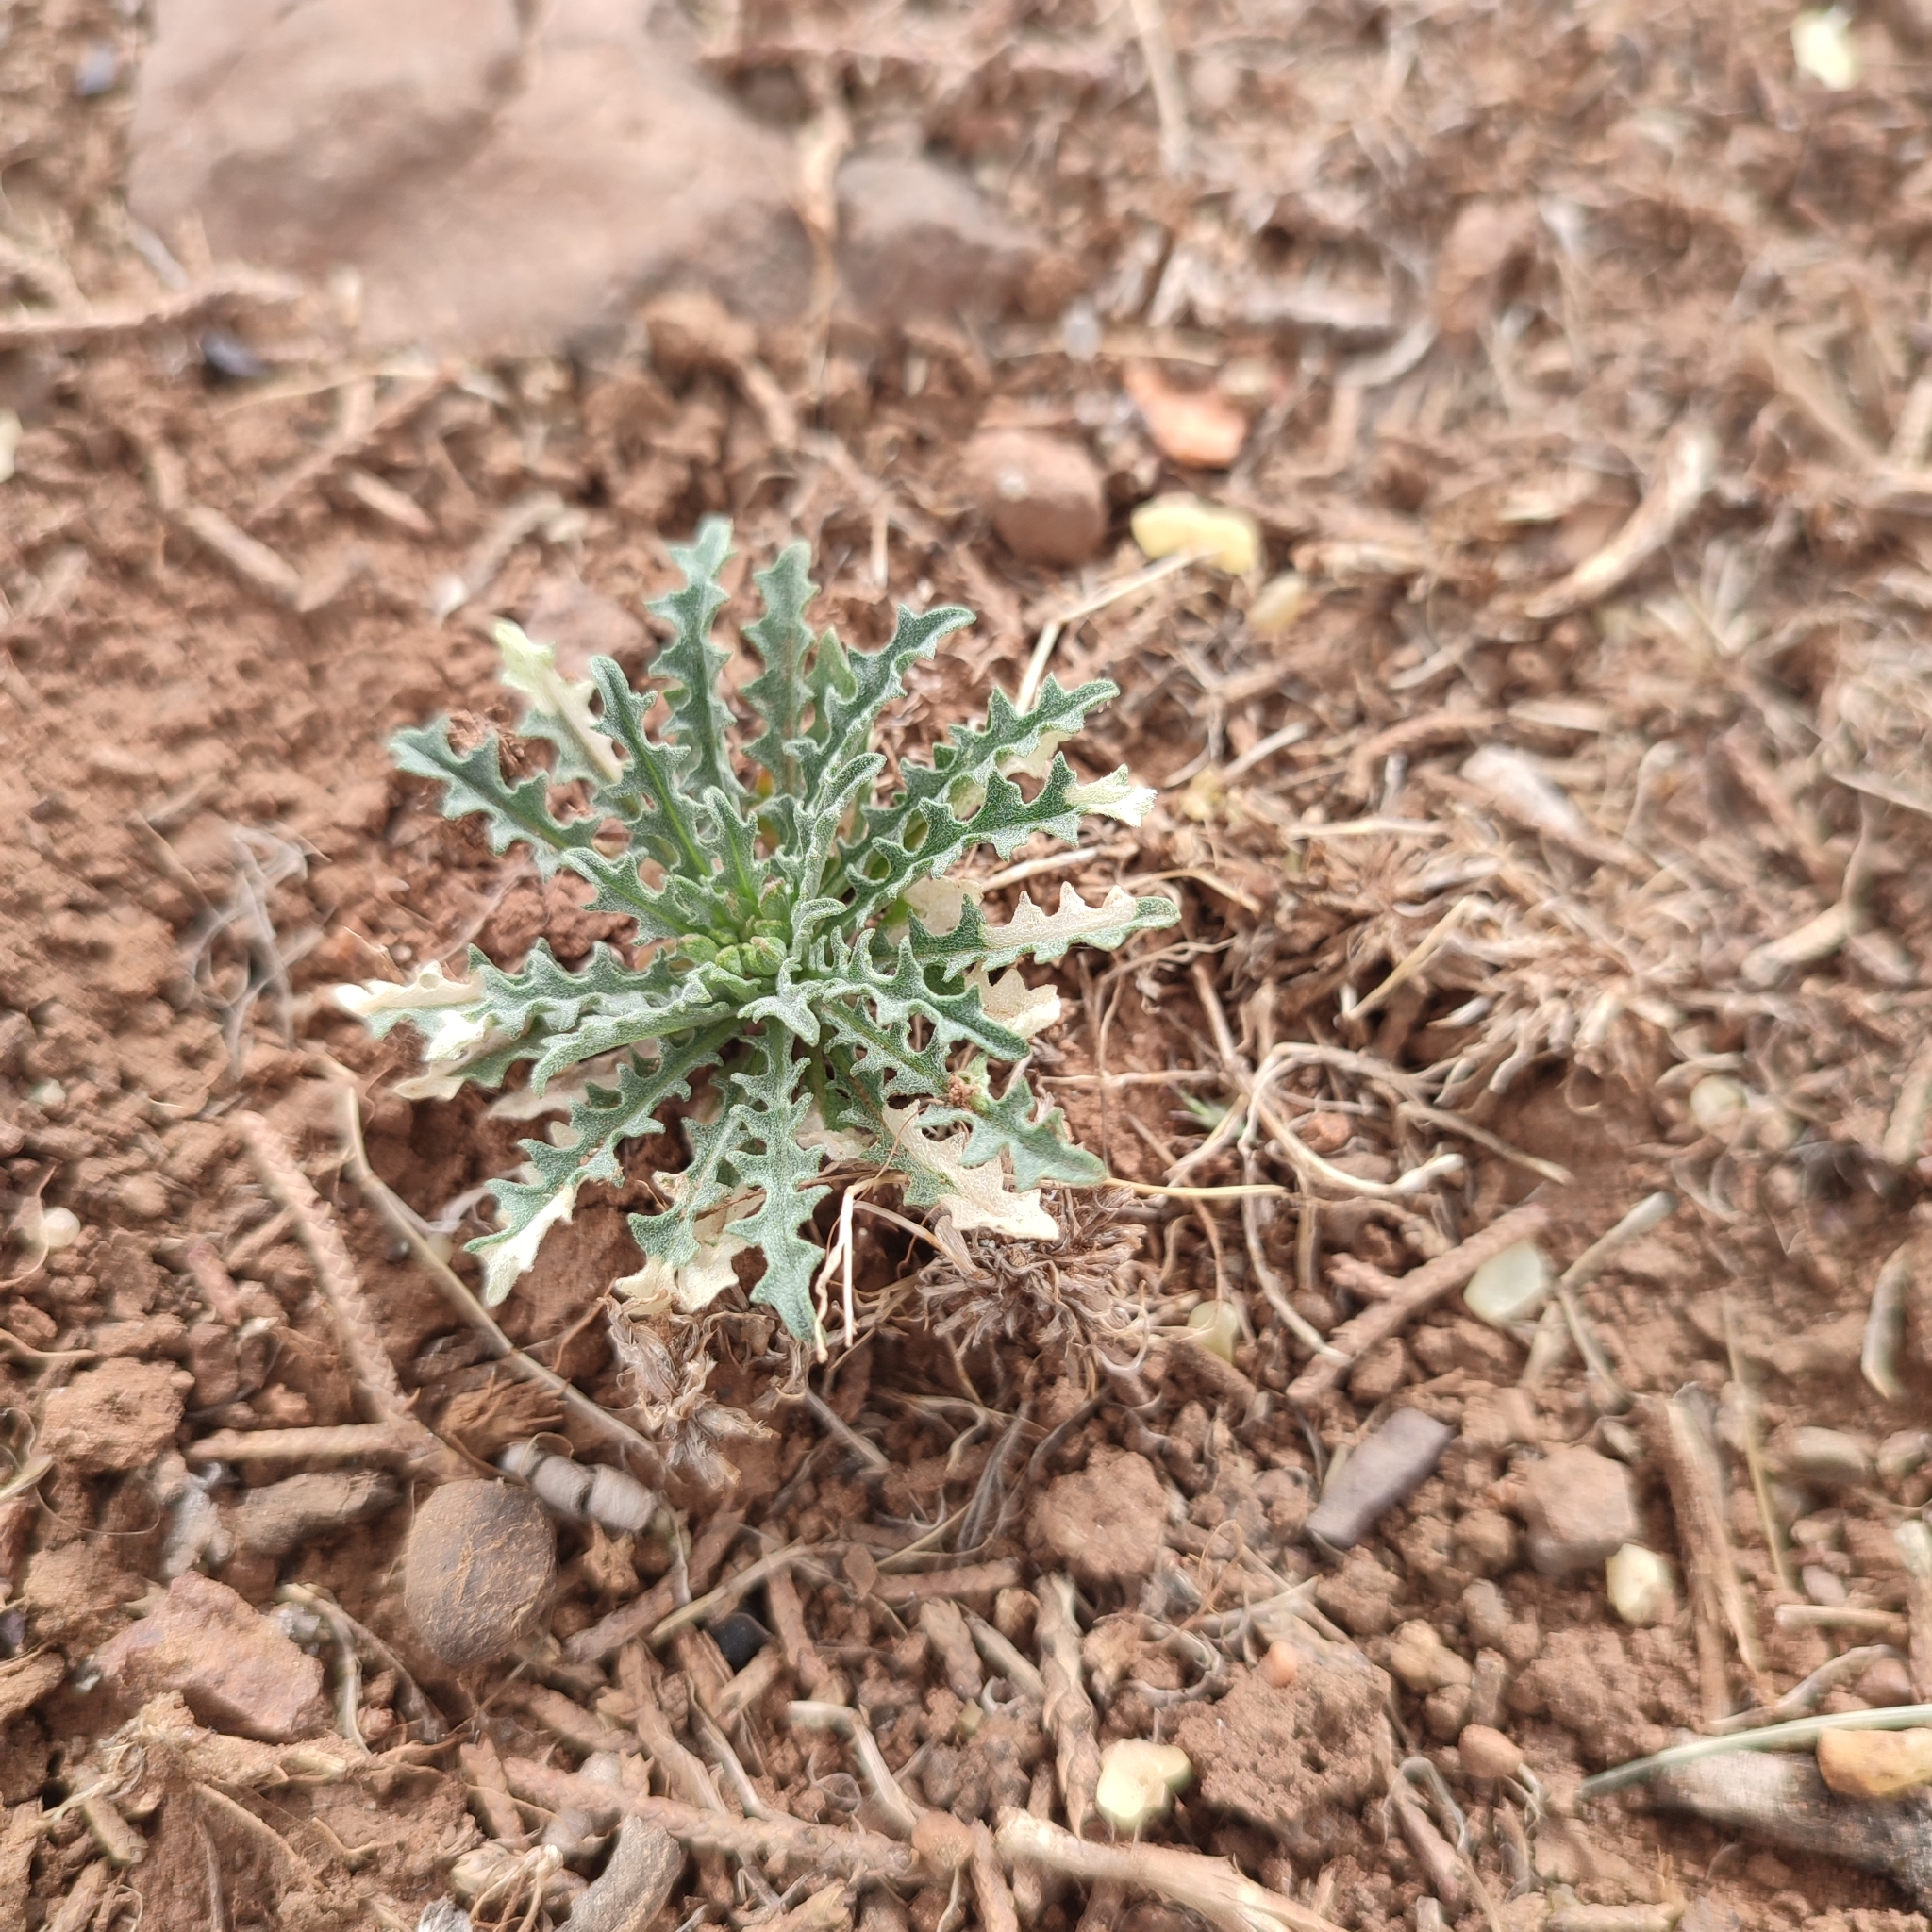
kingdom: Plantae
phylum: Tracheophyta
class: Magnoliopsida
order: Brassicales
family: Brassicaceae
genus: Erysimum
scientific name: Erysimum incanum
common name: Hoary treacle mustard
